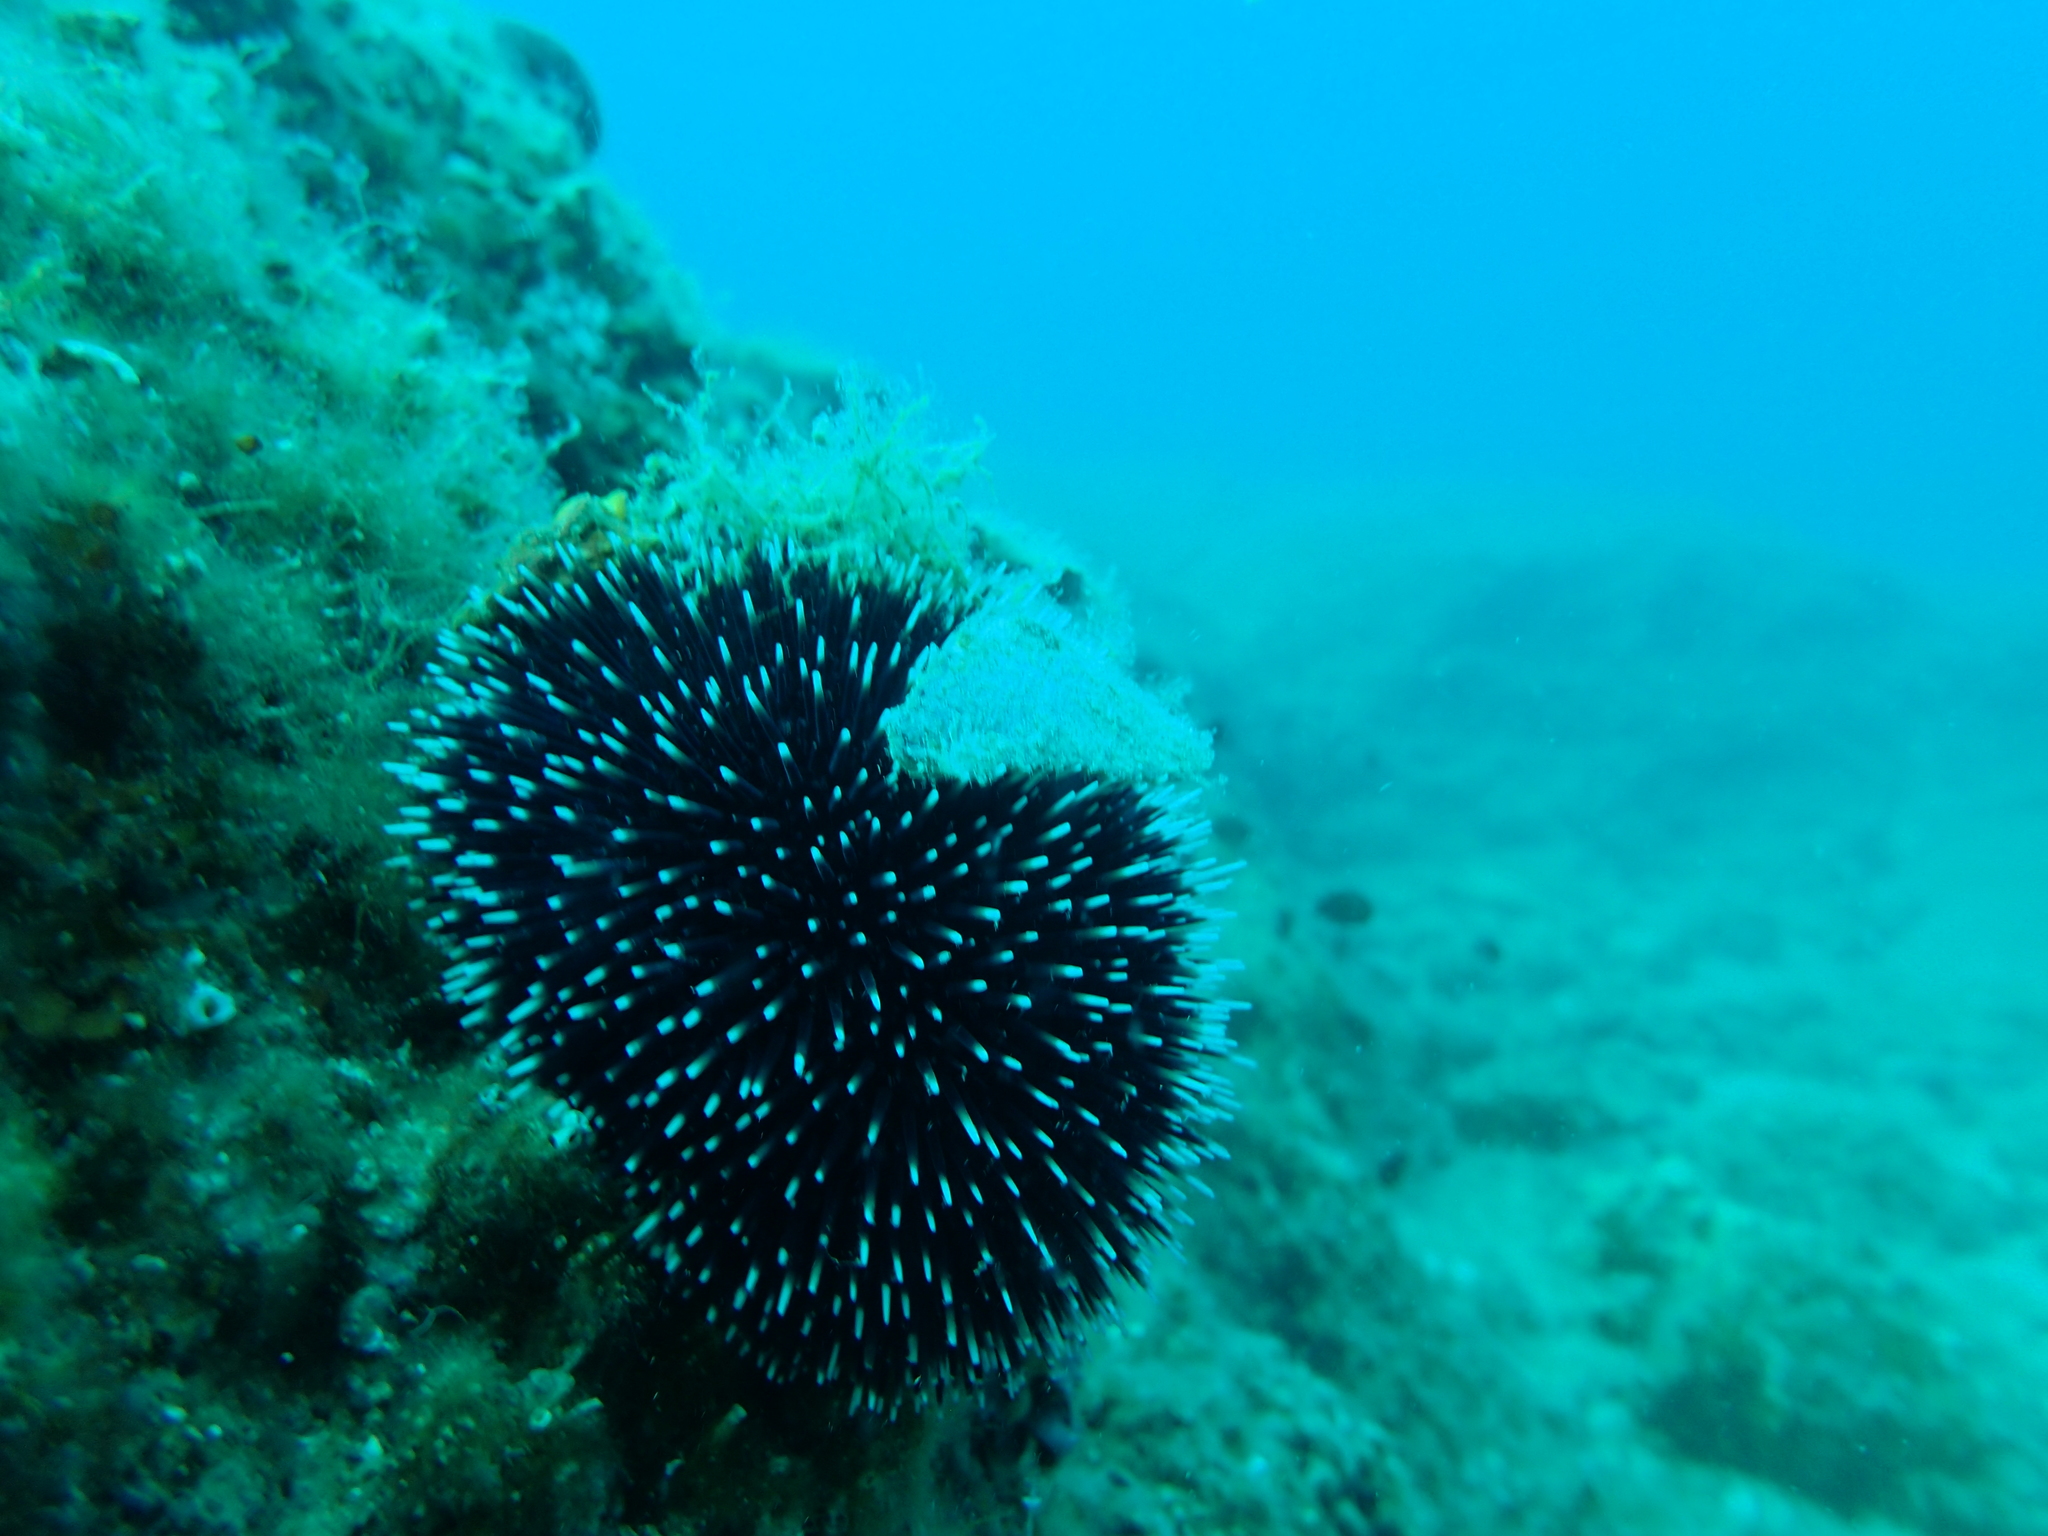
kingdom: Animalia
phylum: Echinodermata
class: Echinoidea
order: Camarodonta
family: Toxopneustidae
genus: Sphaerechinus
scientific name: Sphaerechinus granularis
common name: Violet sea urchin
